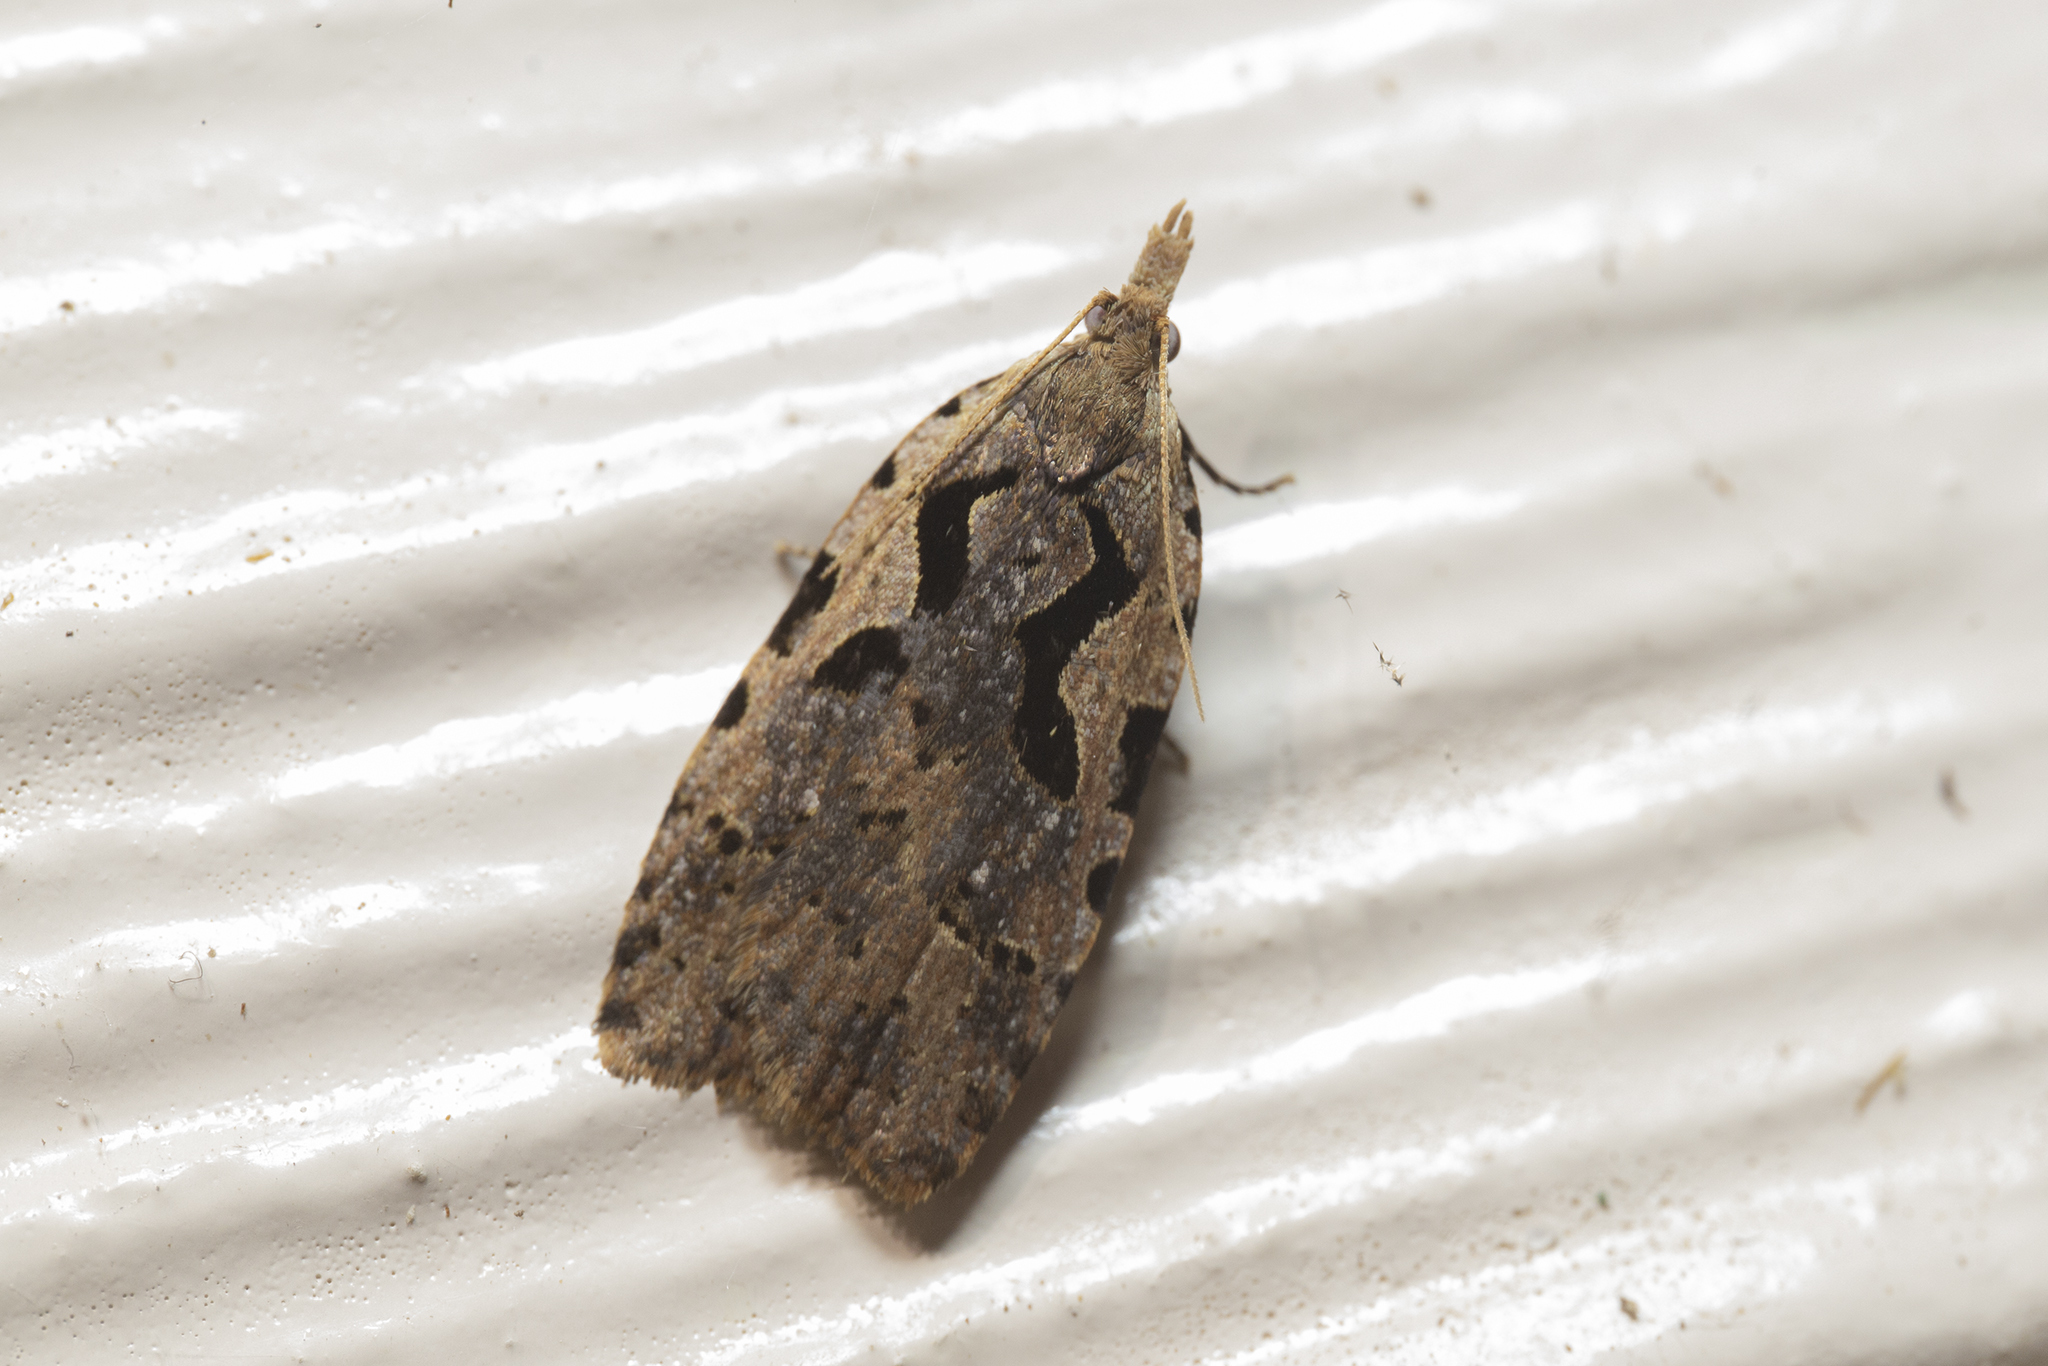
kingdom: Animalia
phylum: Arthropoda
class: Insecta
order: Lepidoptera
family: Tortricidae
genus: Cnephasia
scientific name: Cnephasia jactatana
